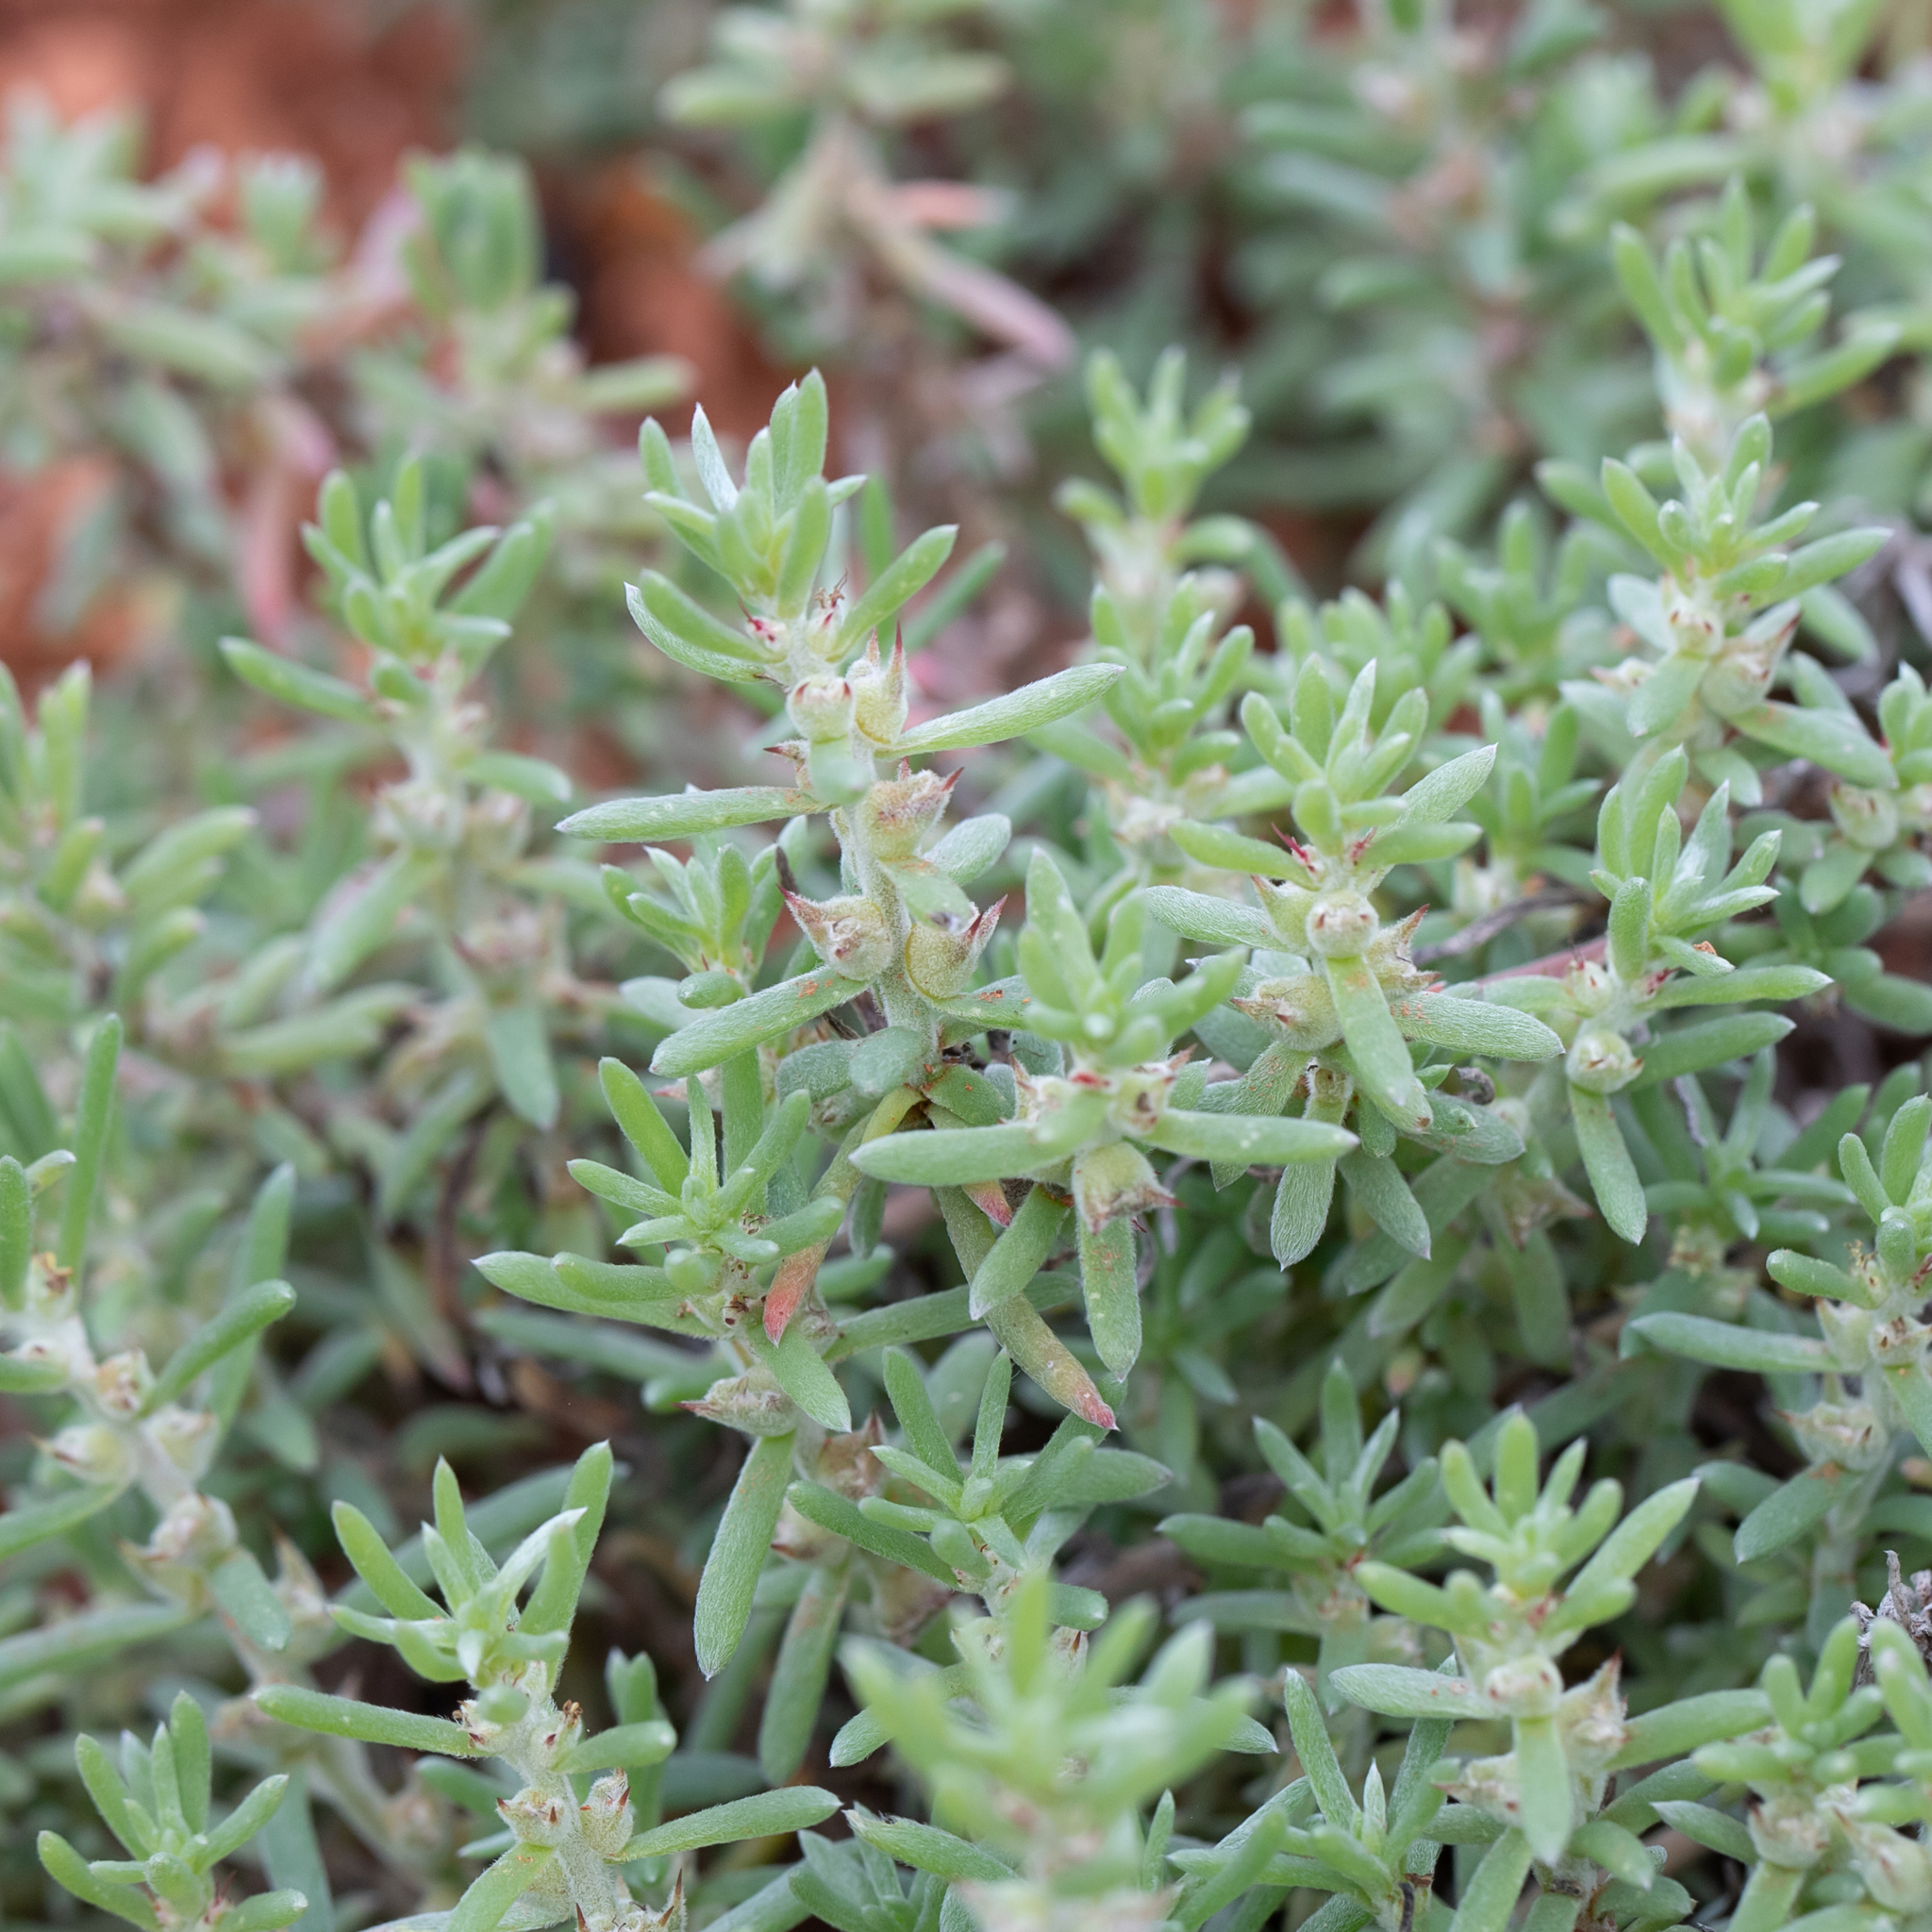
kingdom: Plantae
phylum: Tracheophyta
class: Magnoliopsida
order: Caryophyllales
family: Amaranthaceae
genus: Sclerolaena
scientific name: Sclerolaena diacantha
